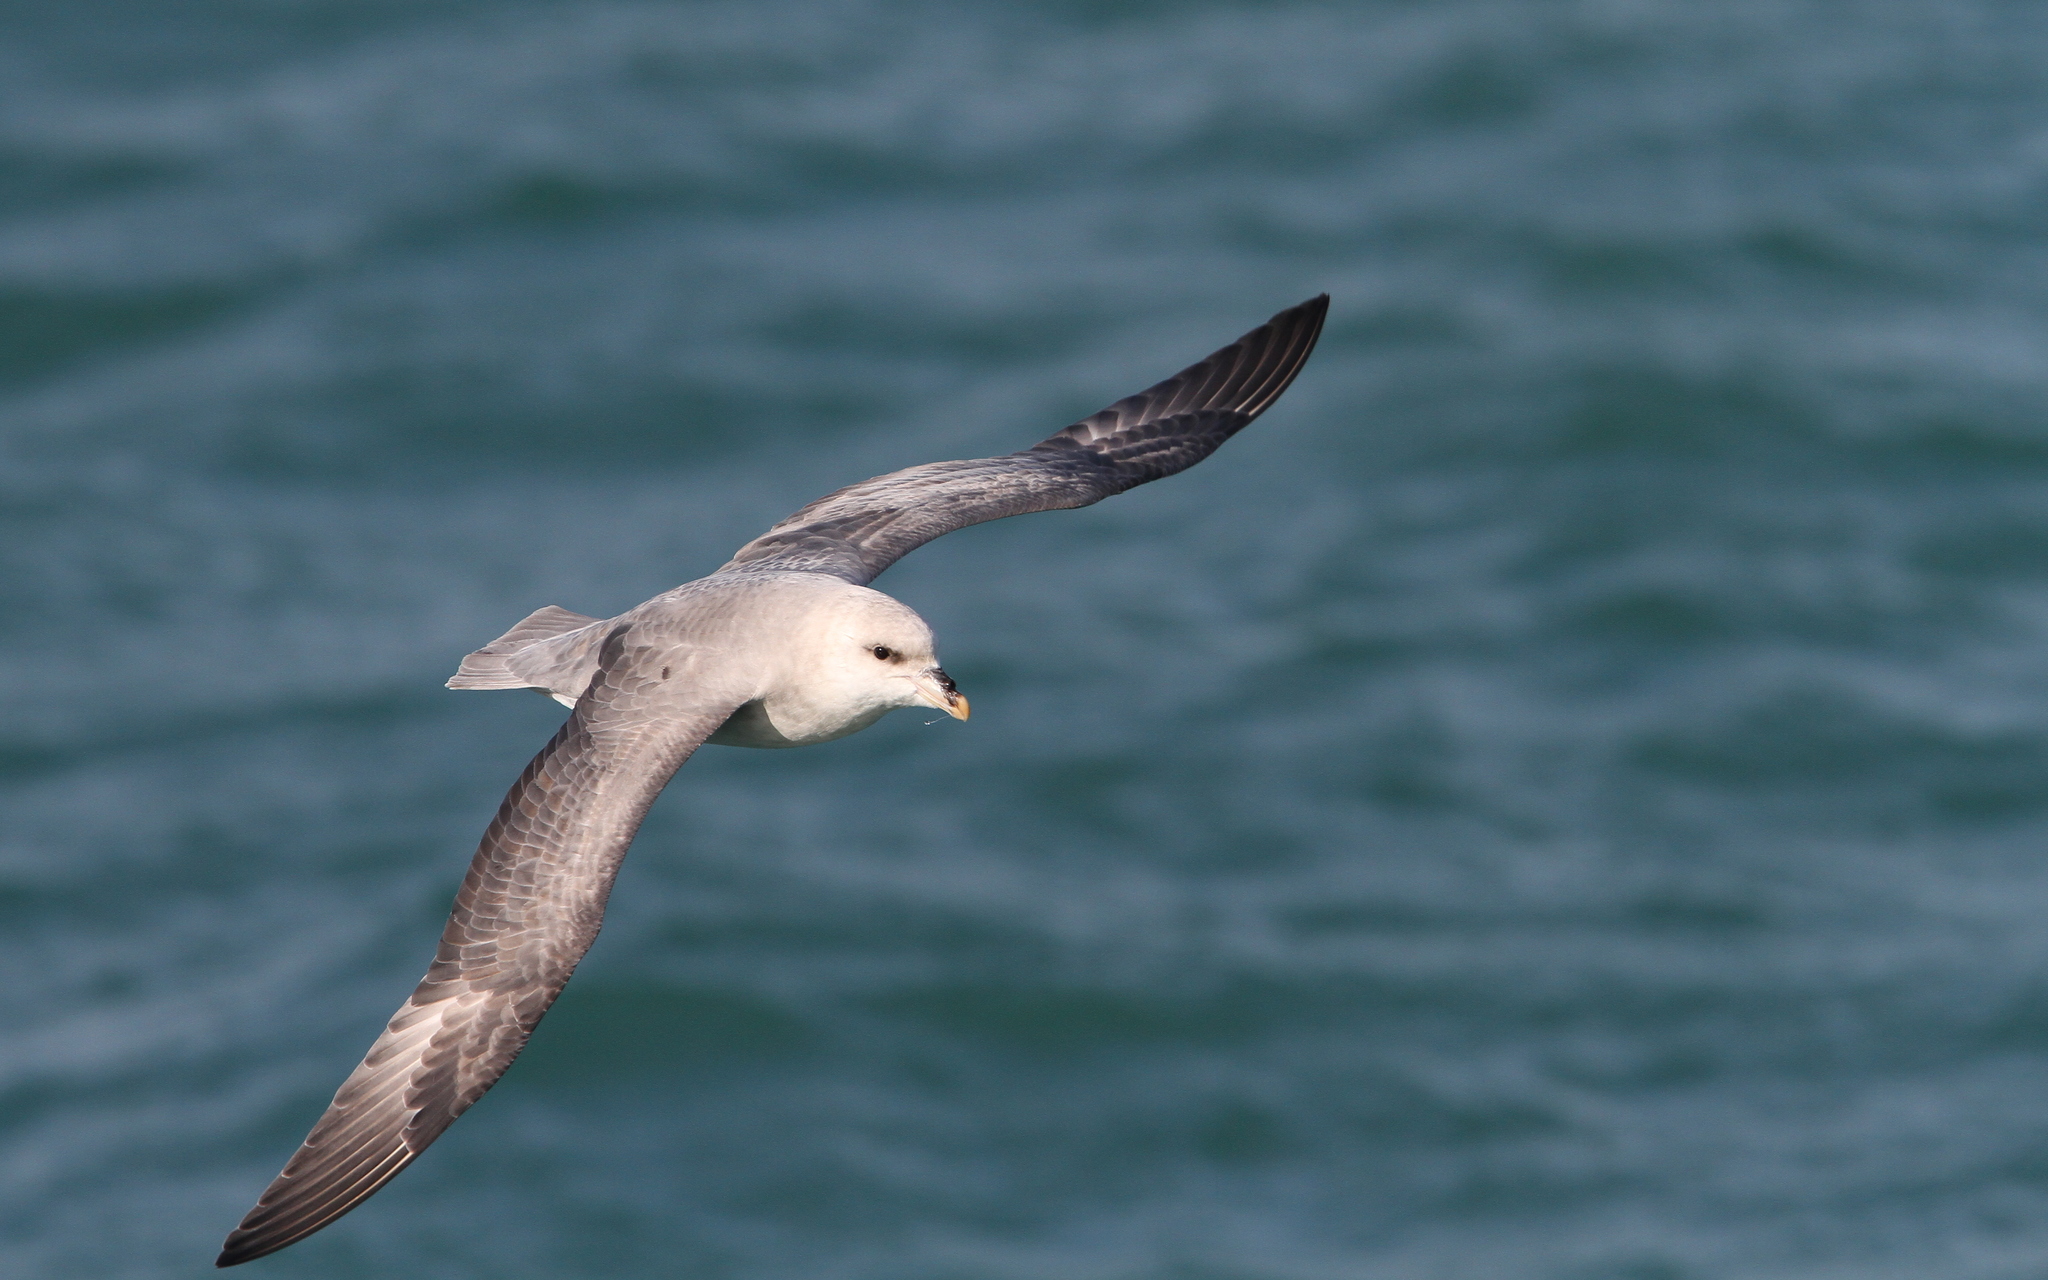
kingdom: Animalia
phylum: Chordata
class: Aves
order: Procellariiformes
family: Procellariidae
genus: Fulmarus
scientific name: Fulmarus glacialis
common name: Northern fulmar
